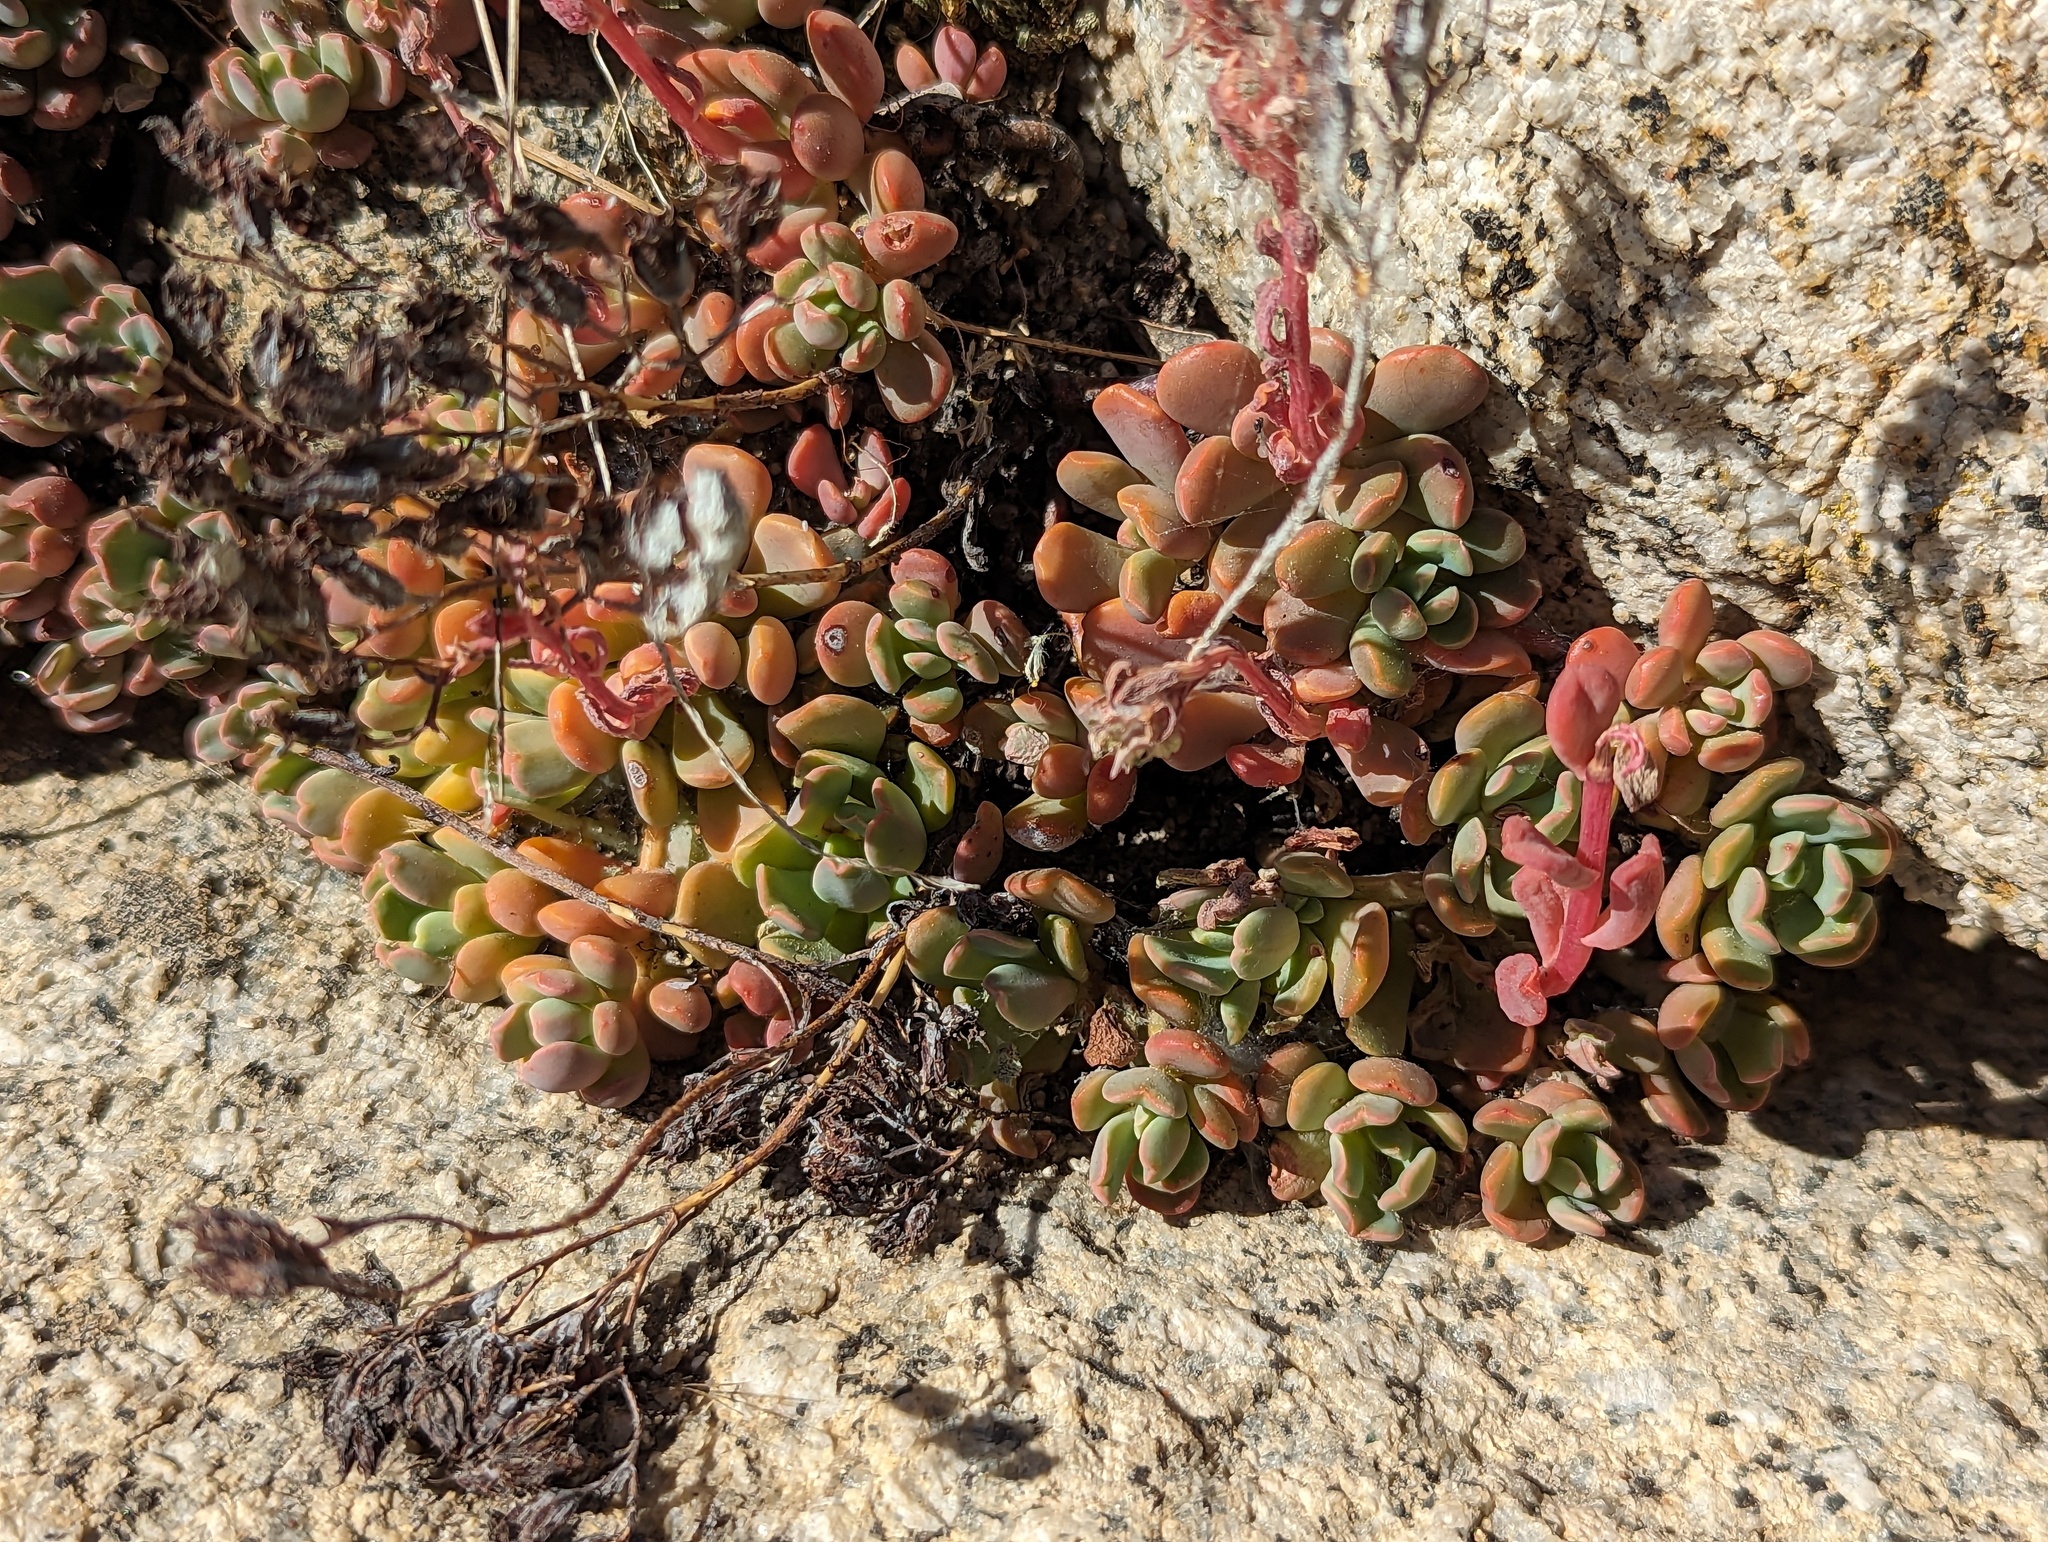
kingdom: Plantae
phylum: Tracheophyta
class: Magnoliopsida
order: Saxifragales
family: Crassulaceae
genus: Sedum
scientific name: Sedum obtusatum
